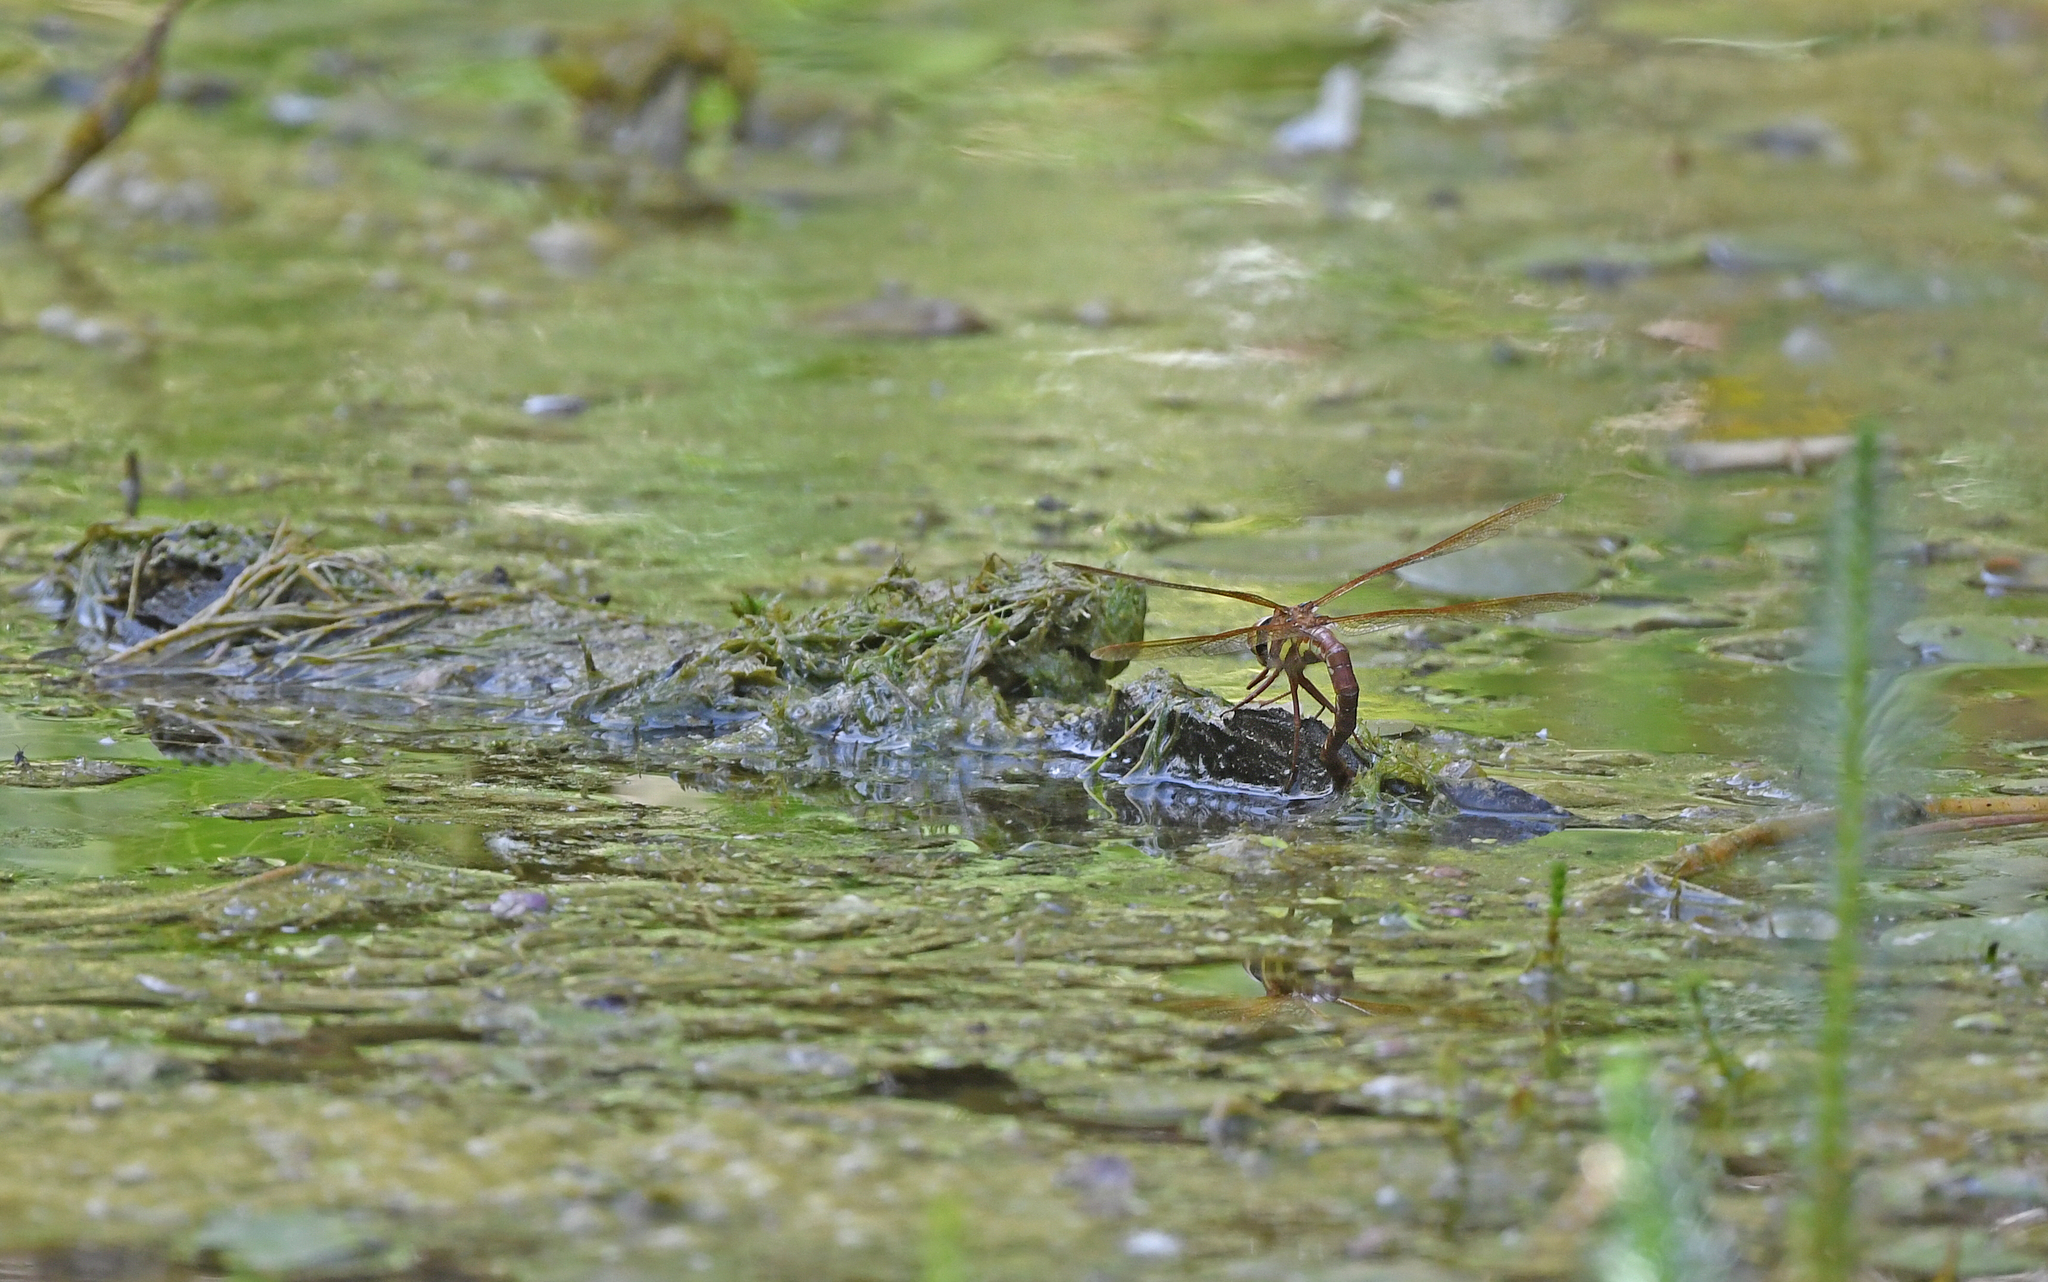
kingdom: Animalia
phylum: Arthropoda
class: Insecta
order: Odonata
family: Aeshnidae
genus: Aeshna
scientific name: Aeshna grandis
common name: Brown hawker
